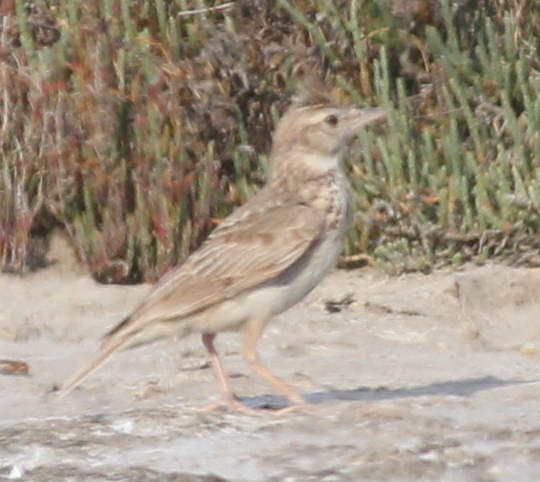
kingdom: Animalia
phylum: Chordata
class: Aves
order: Passeriformes
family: Alaudidae
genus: Galerida
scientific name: Galerida cristata
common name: Crested lark
